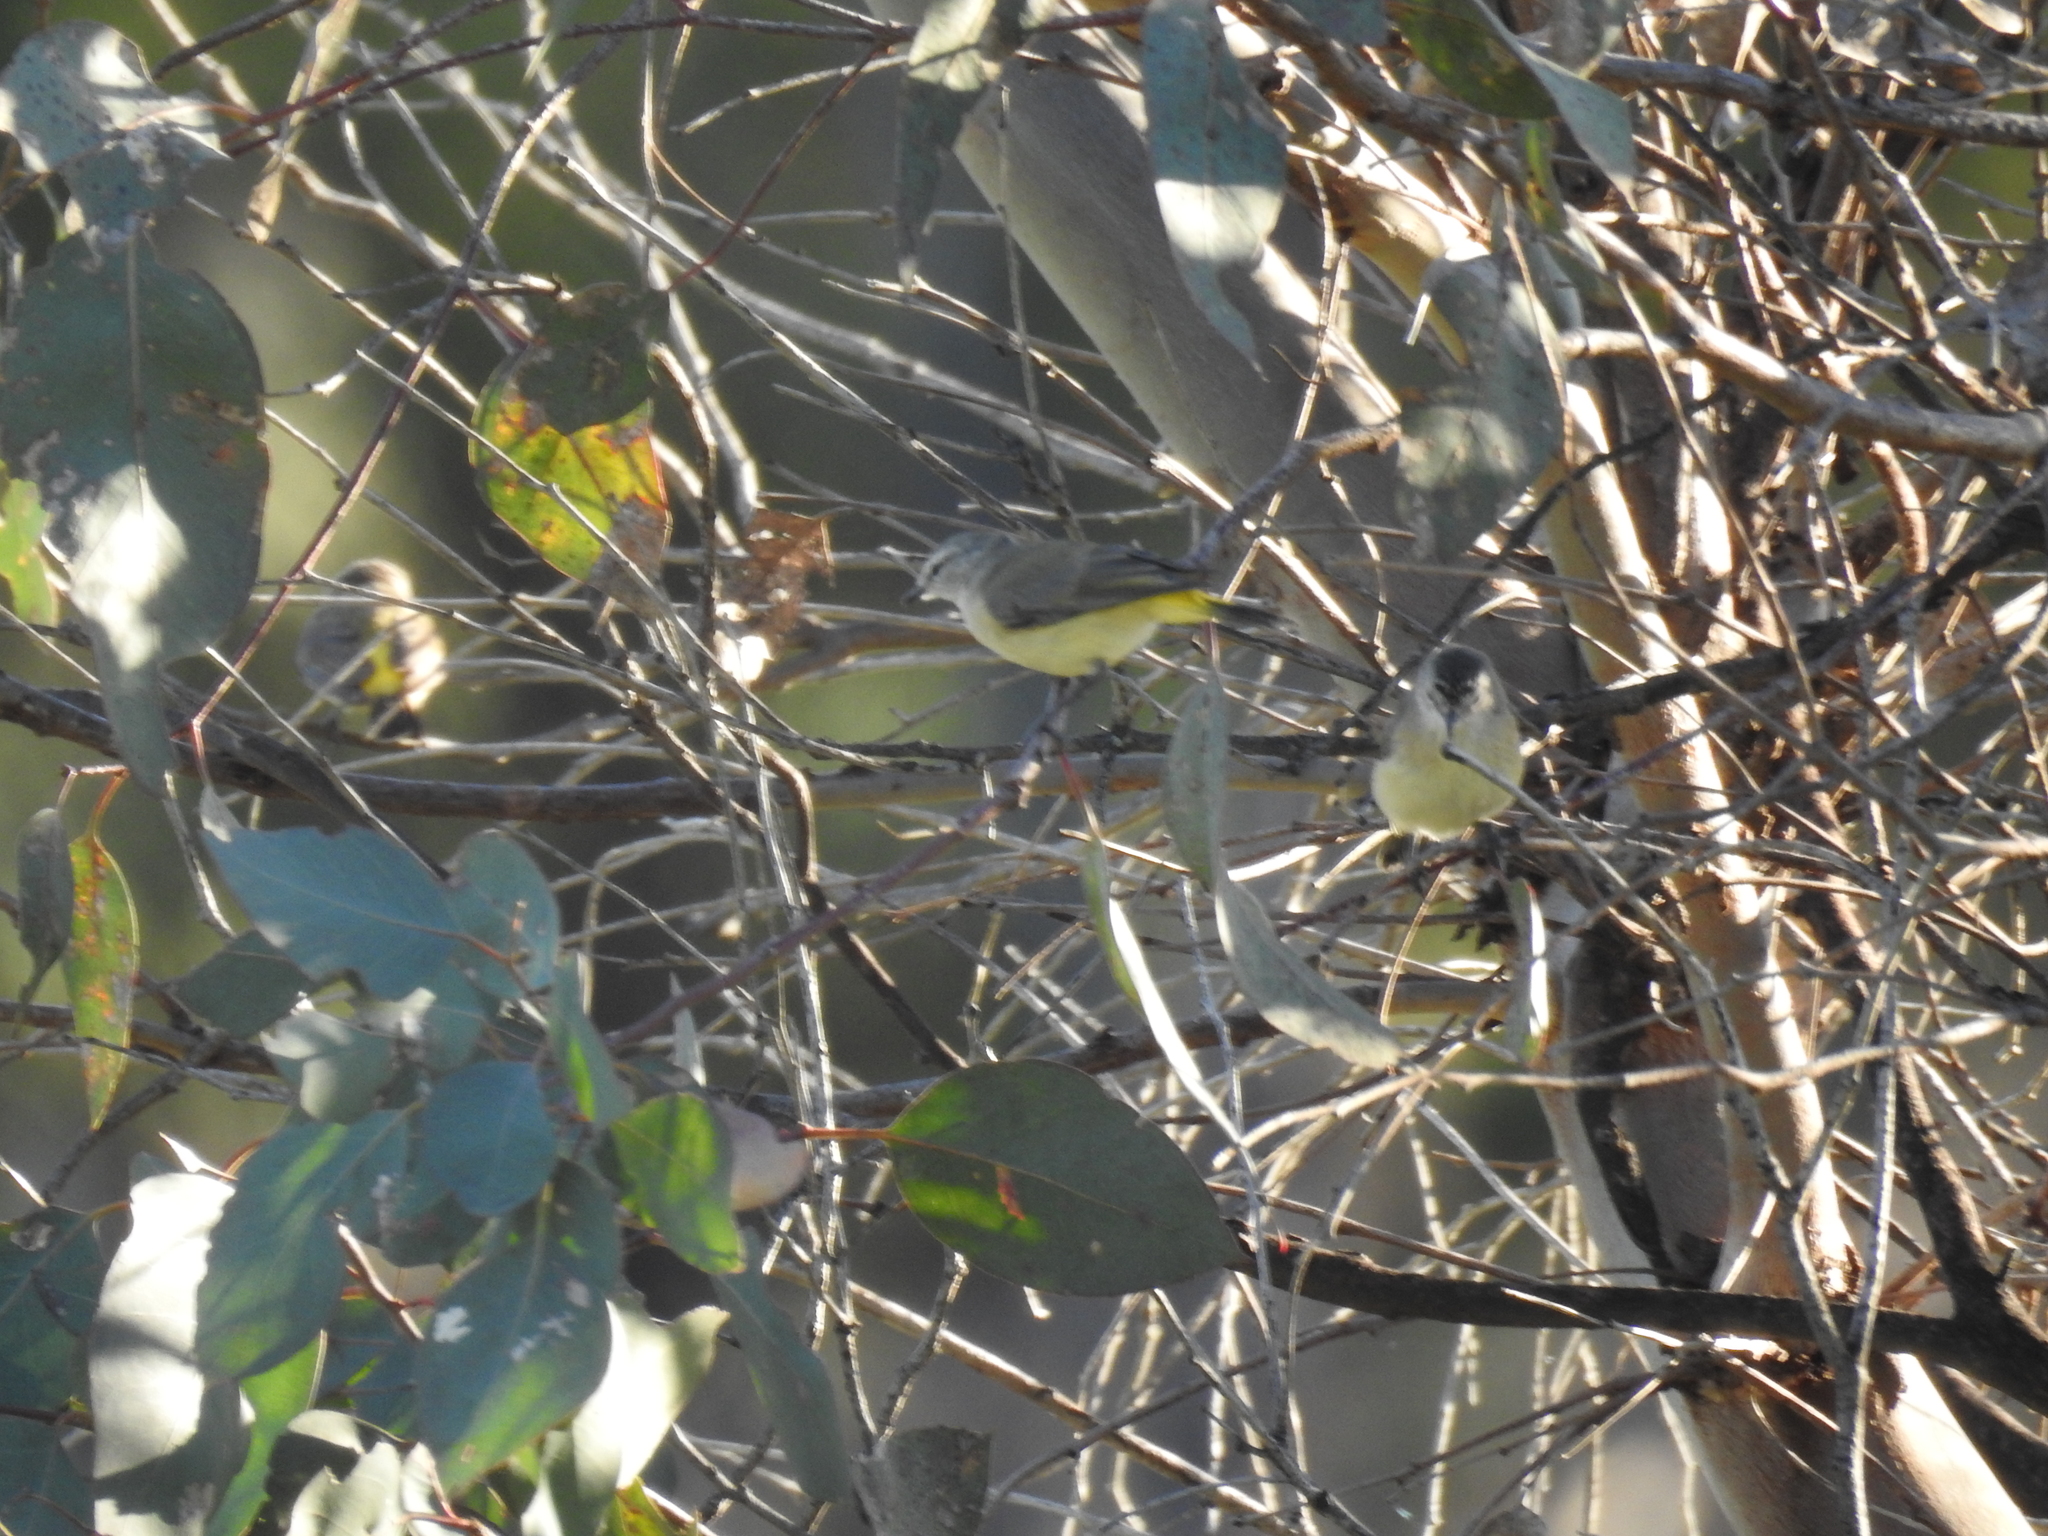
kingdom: Animalia
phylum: Chordata
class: Aves
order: Passeriformes
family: Acanthizidae
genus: Acanthiza
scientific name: Acanthiza chrysorrhoa
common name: Yellow-rumped thornbill
